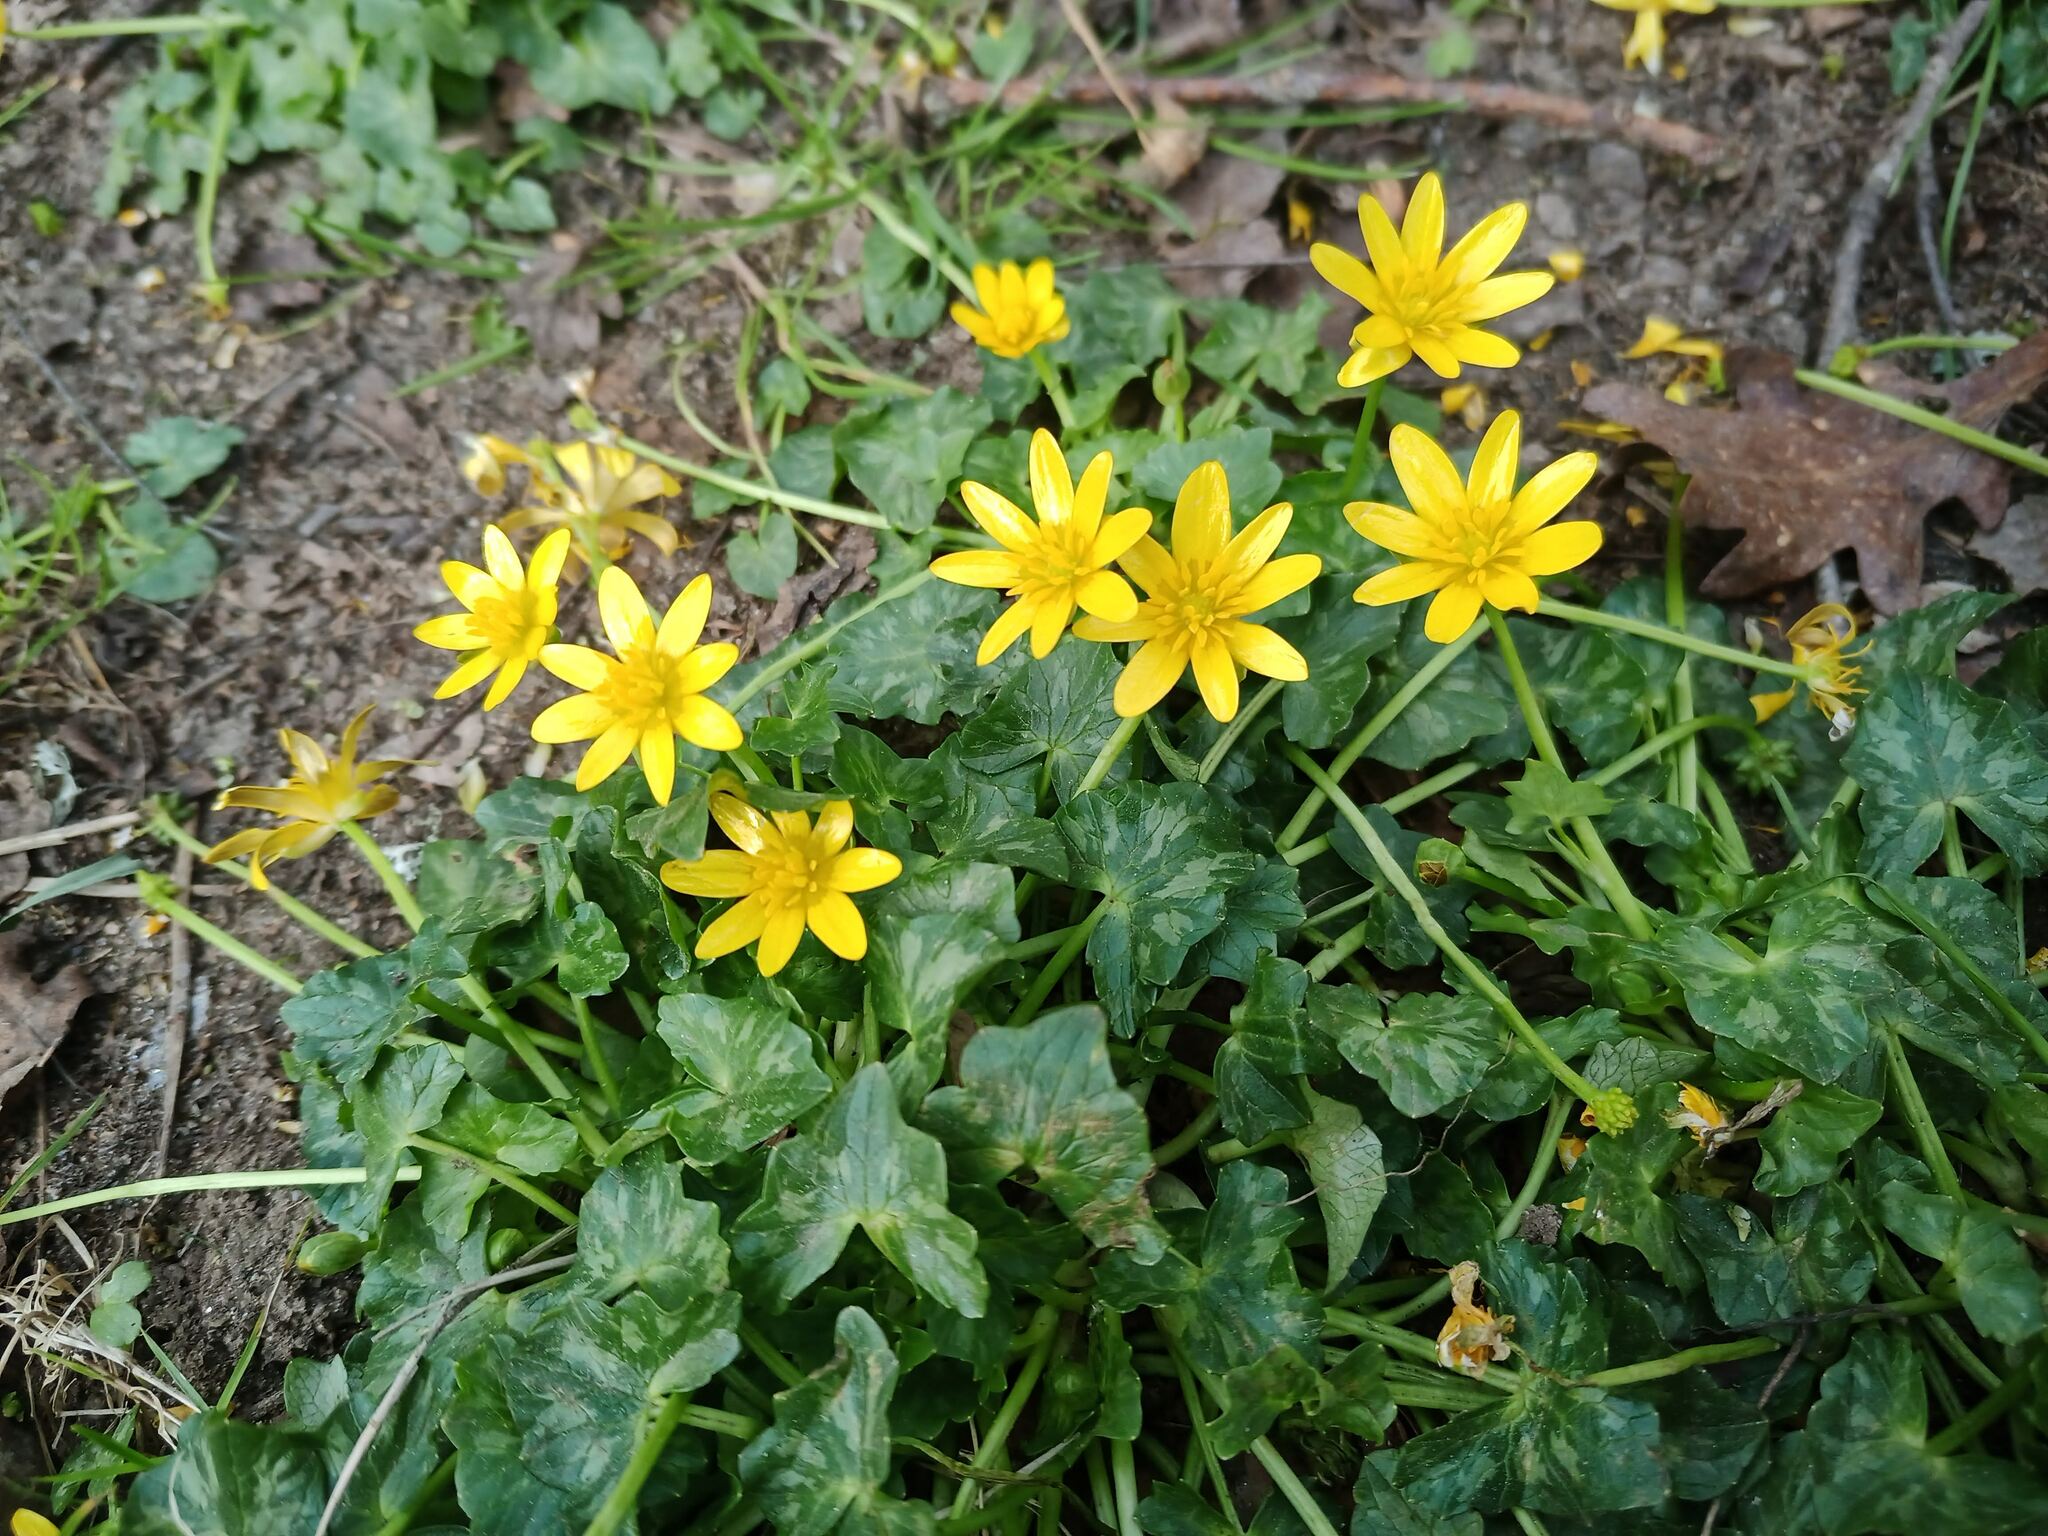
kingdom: Plantae
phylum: Tracheophyta
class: Magnoliopsida
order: Ranunculales
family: Ranunculaceae
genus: Ficaria
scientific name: Ficaria verna
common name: Lesser celandine
